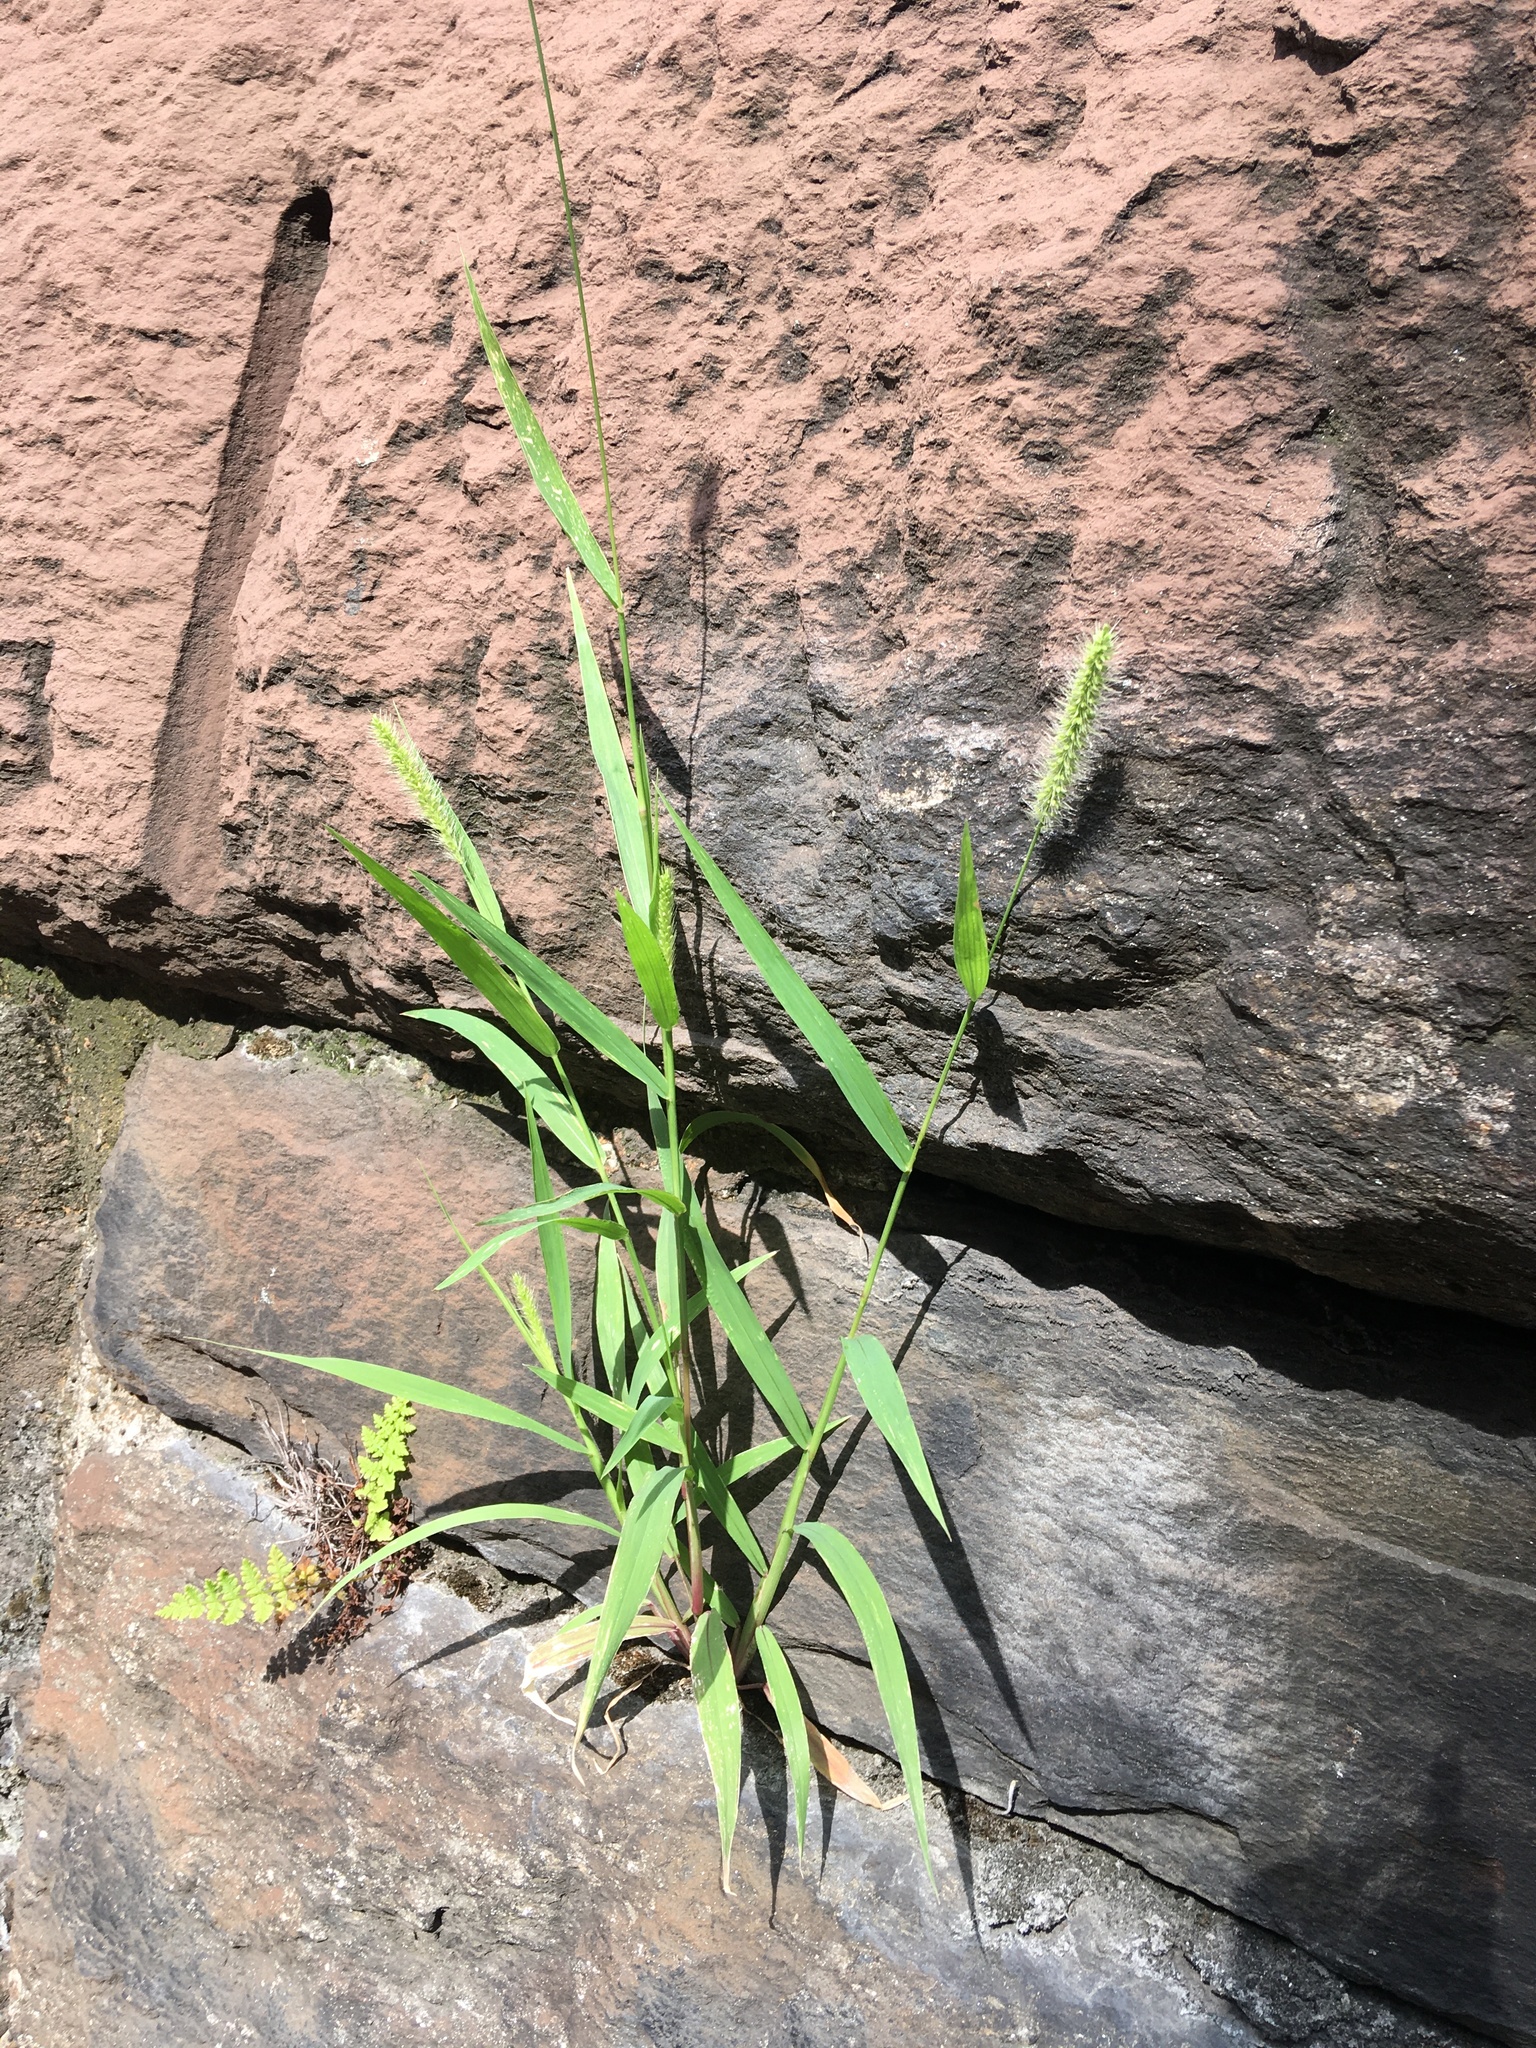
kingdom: Plantae
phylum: Tracheophyta
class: Liliopsida
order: Poales
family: Poaceae
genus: Setaria
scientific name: Setaria viridis
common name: Green bristlegrass
